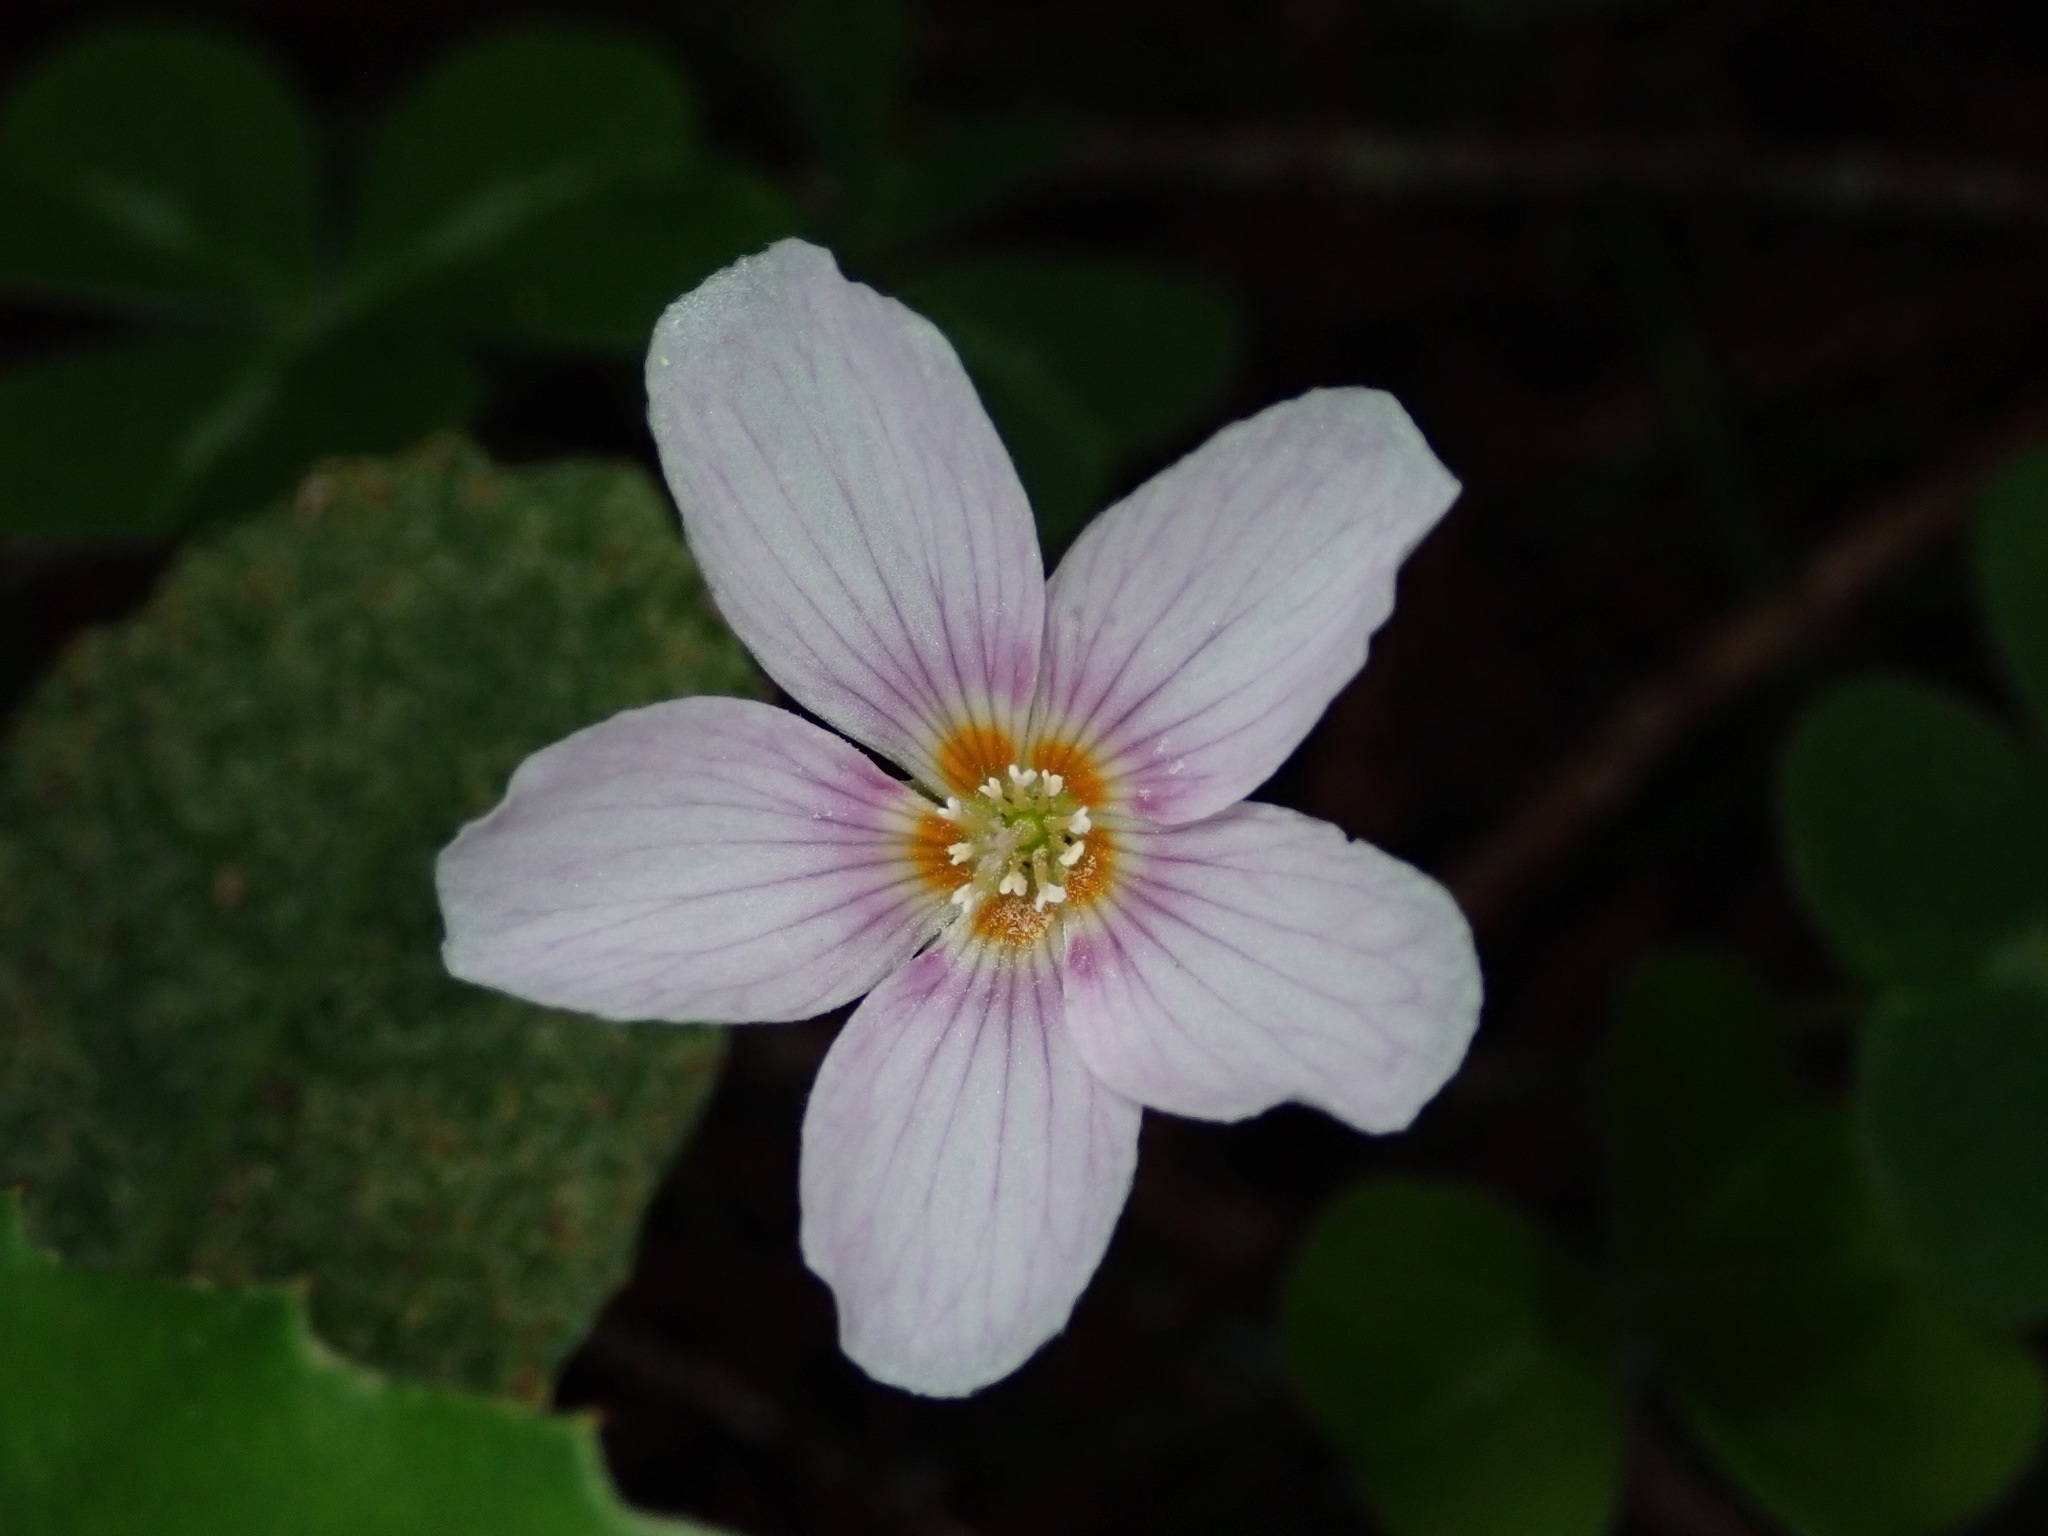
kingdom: Plantae
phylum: Tracheophyta
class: Magnoliopsida
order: Oxalidales
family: Oxalidaceae
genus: Oxalis
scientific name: Oxalis oregana
